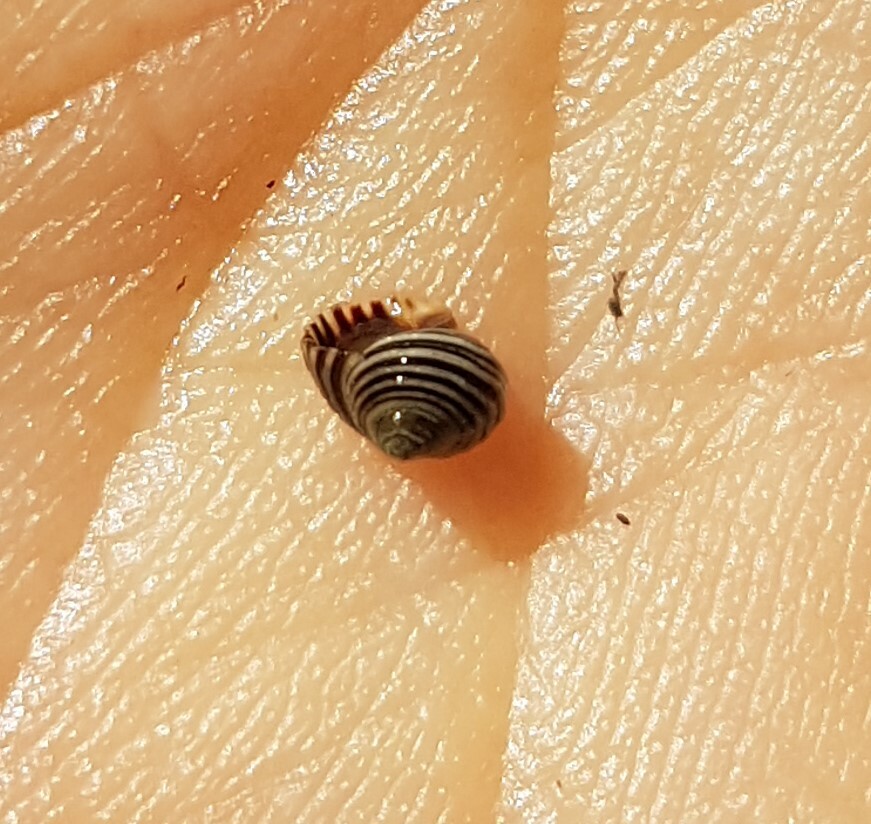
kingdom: Animalia
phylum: Mollusca
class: Gastropoda
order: Littorinimorpha
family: Littorinidae
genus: Littorina
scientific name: Littorina saxatilis
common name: Black-lined periwinkle
